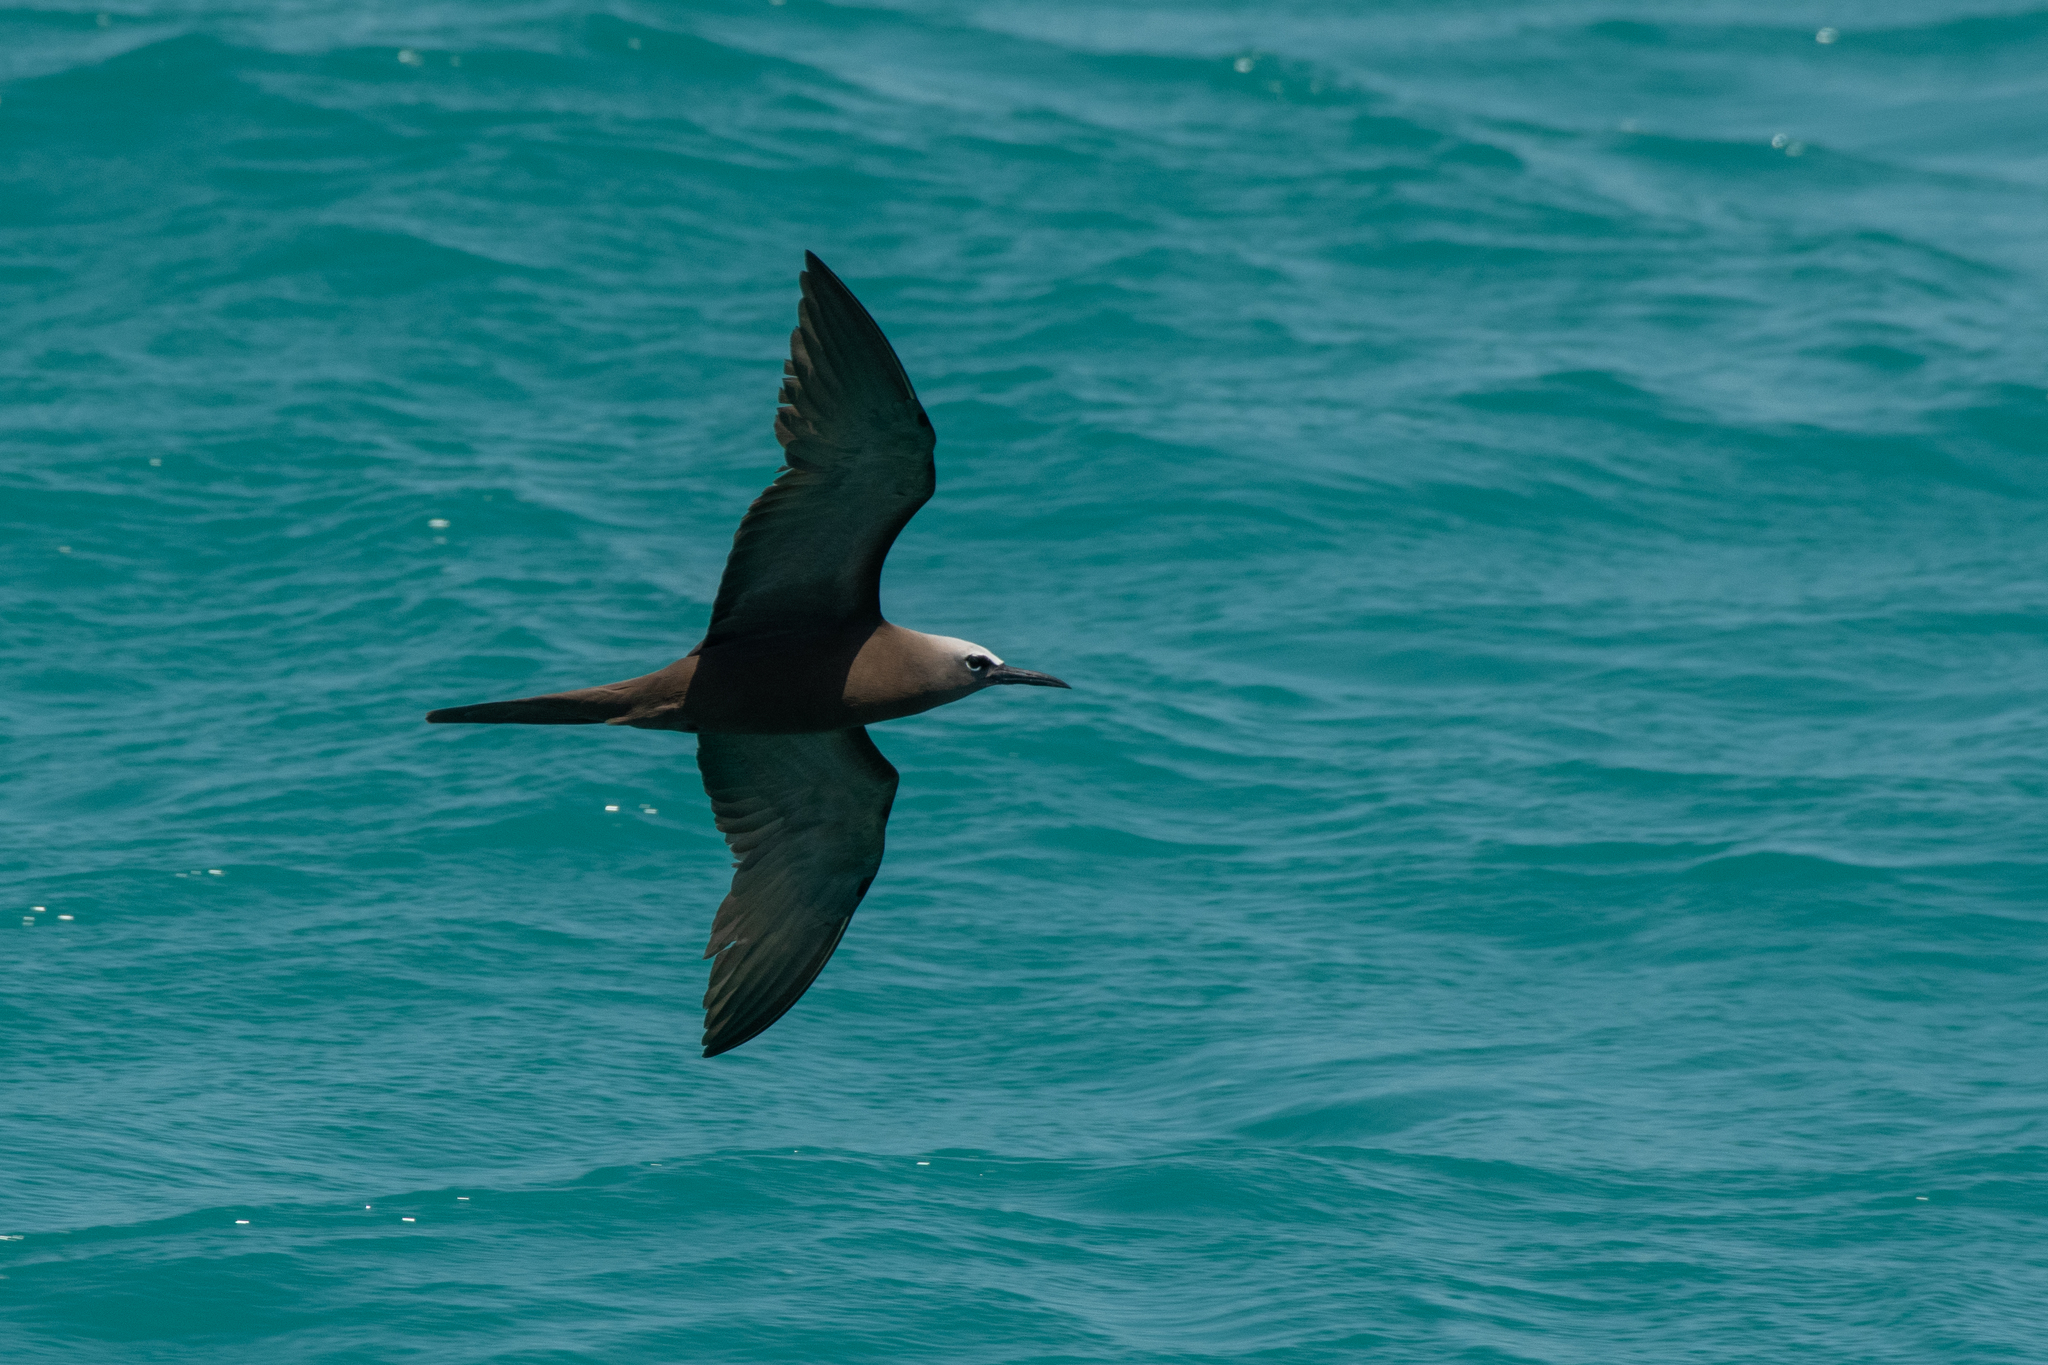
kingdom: Animalia
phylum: Chordata
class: Aves
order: Charadriiformes
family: Laridae
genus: Anous
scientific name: Anous stolidus
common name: Brown noddy
